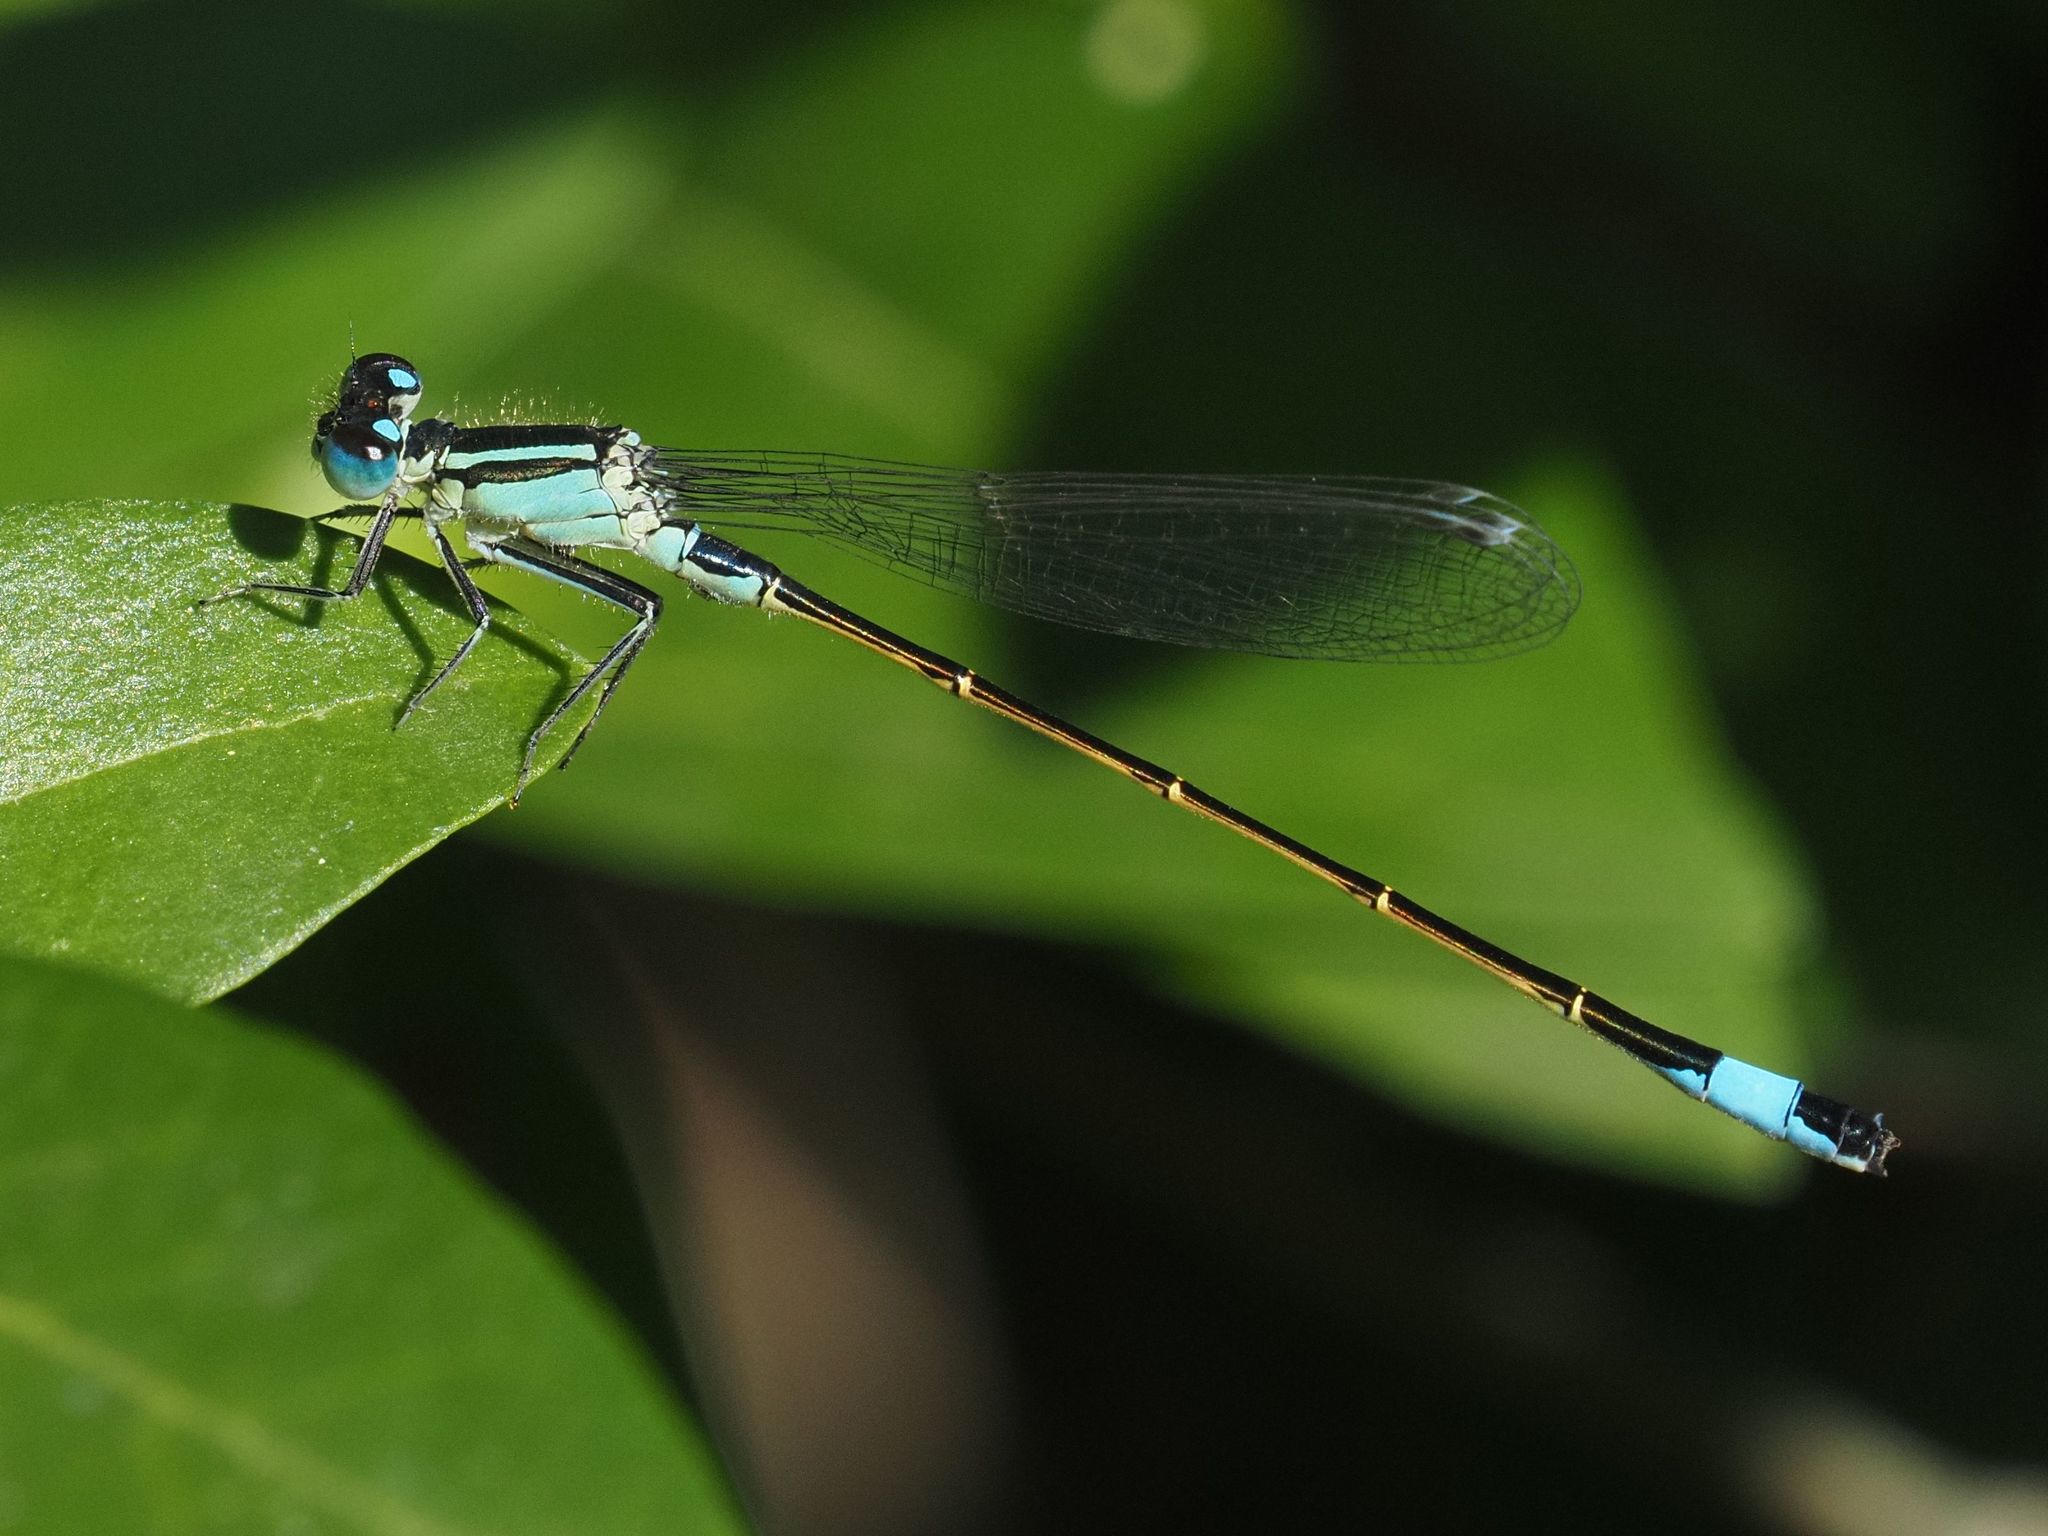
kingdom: Animalia
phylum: Arthropoda
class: Insecta
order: Odonata
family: Coenagrionidae
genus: Ischnura
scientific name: Ischnura elegans
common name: Blue-tailed damselfly
